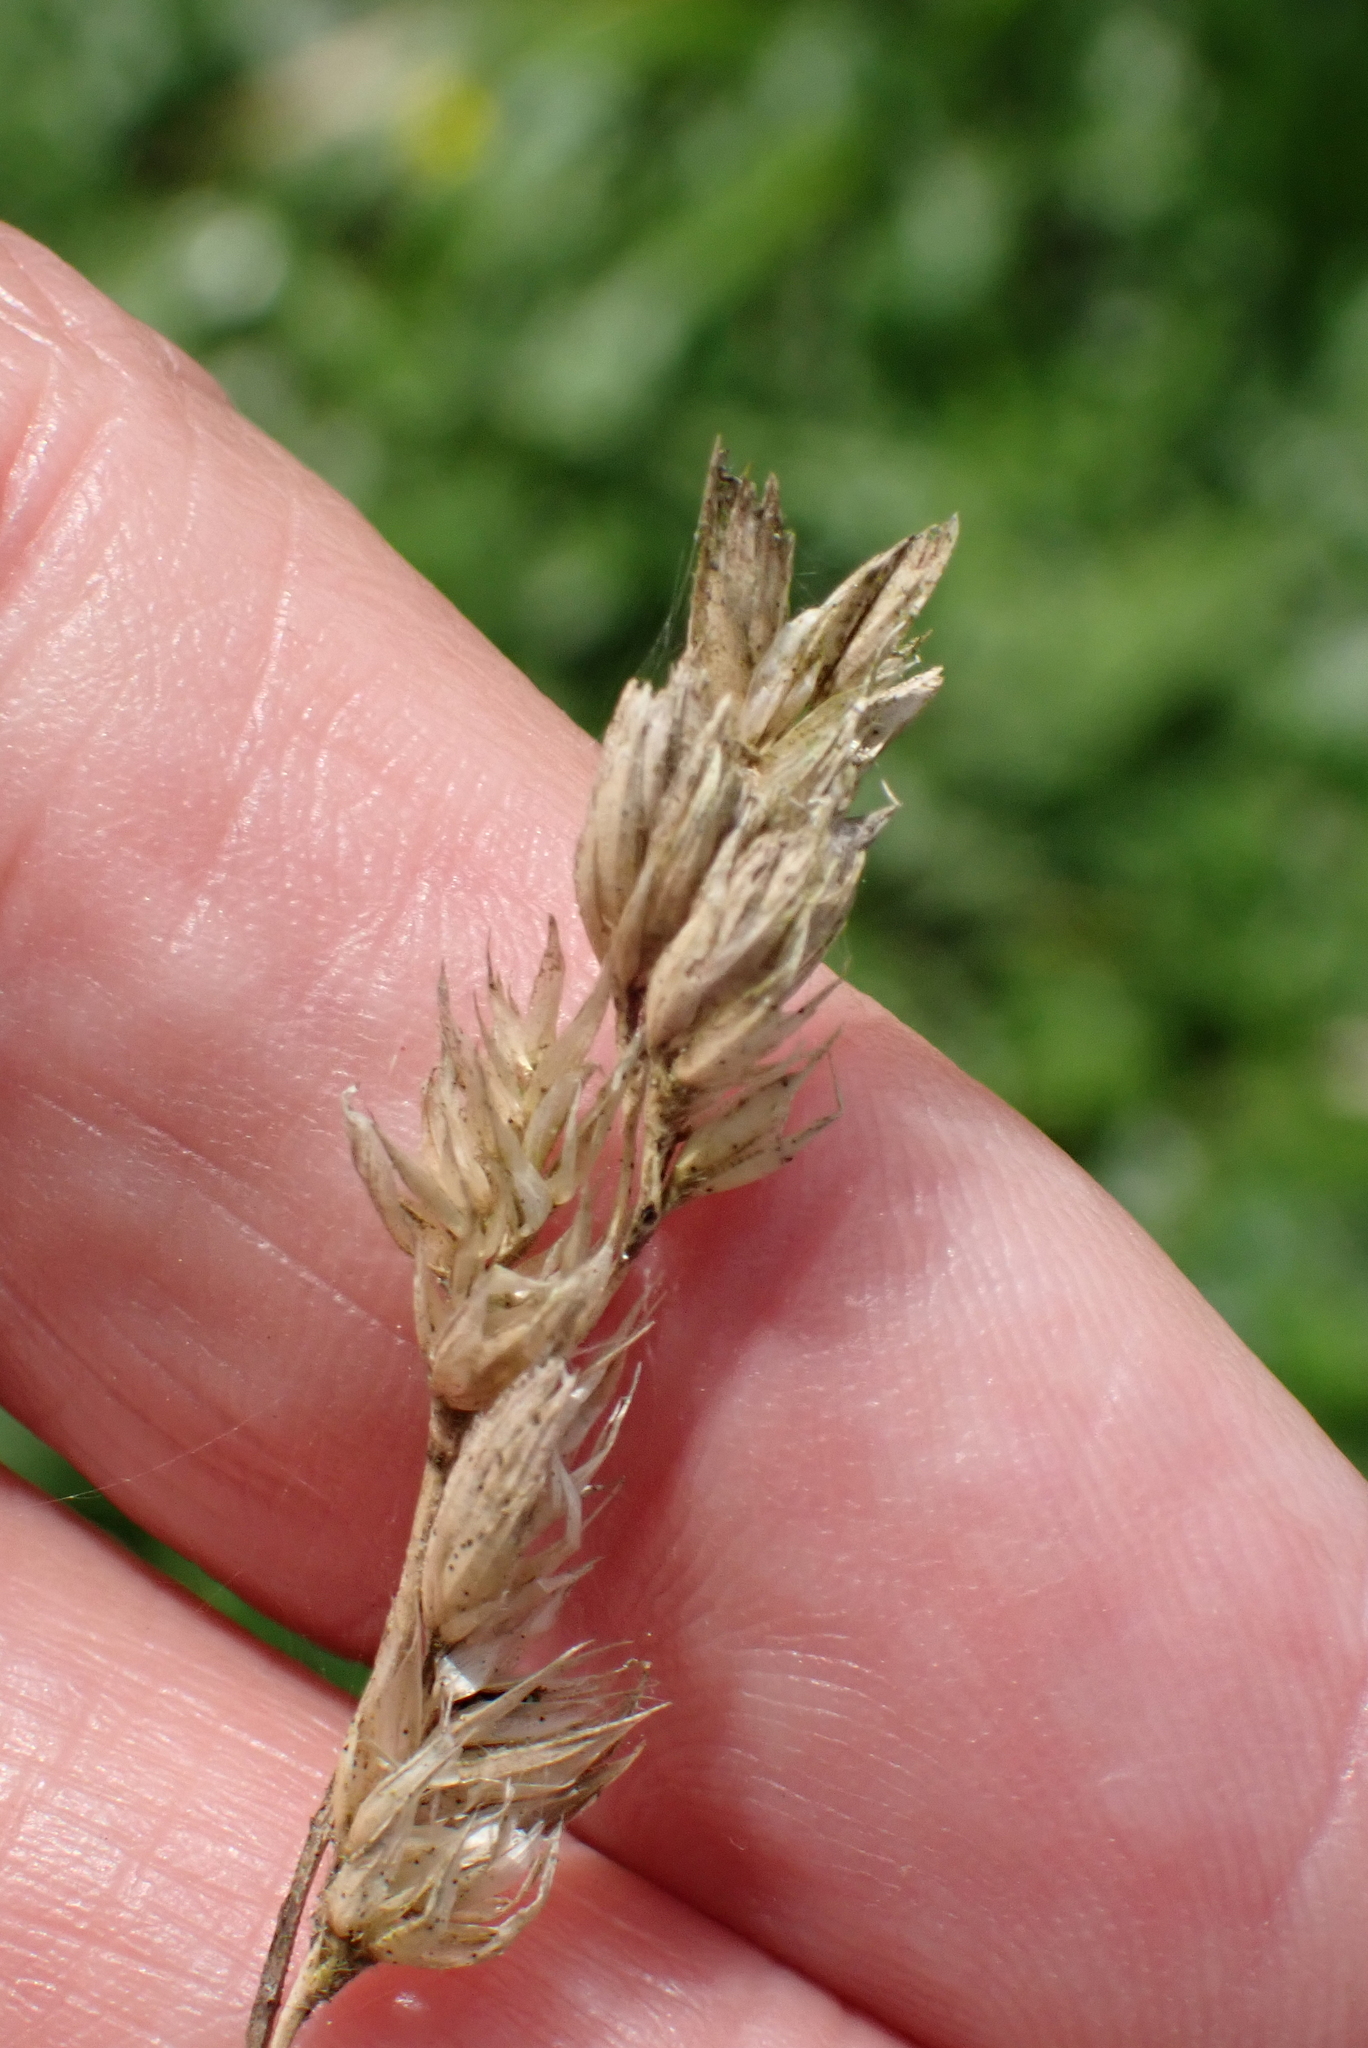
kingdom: Plantae
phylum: Tracheophyta
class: Liliopsida
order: Poales
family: Poaceae
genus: Dactylis
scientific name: Dactylis glomerata
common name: Orchardgrass
